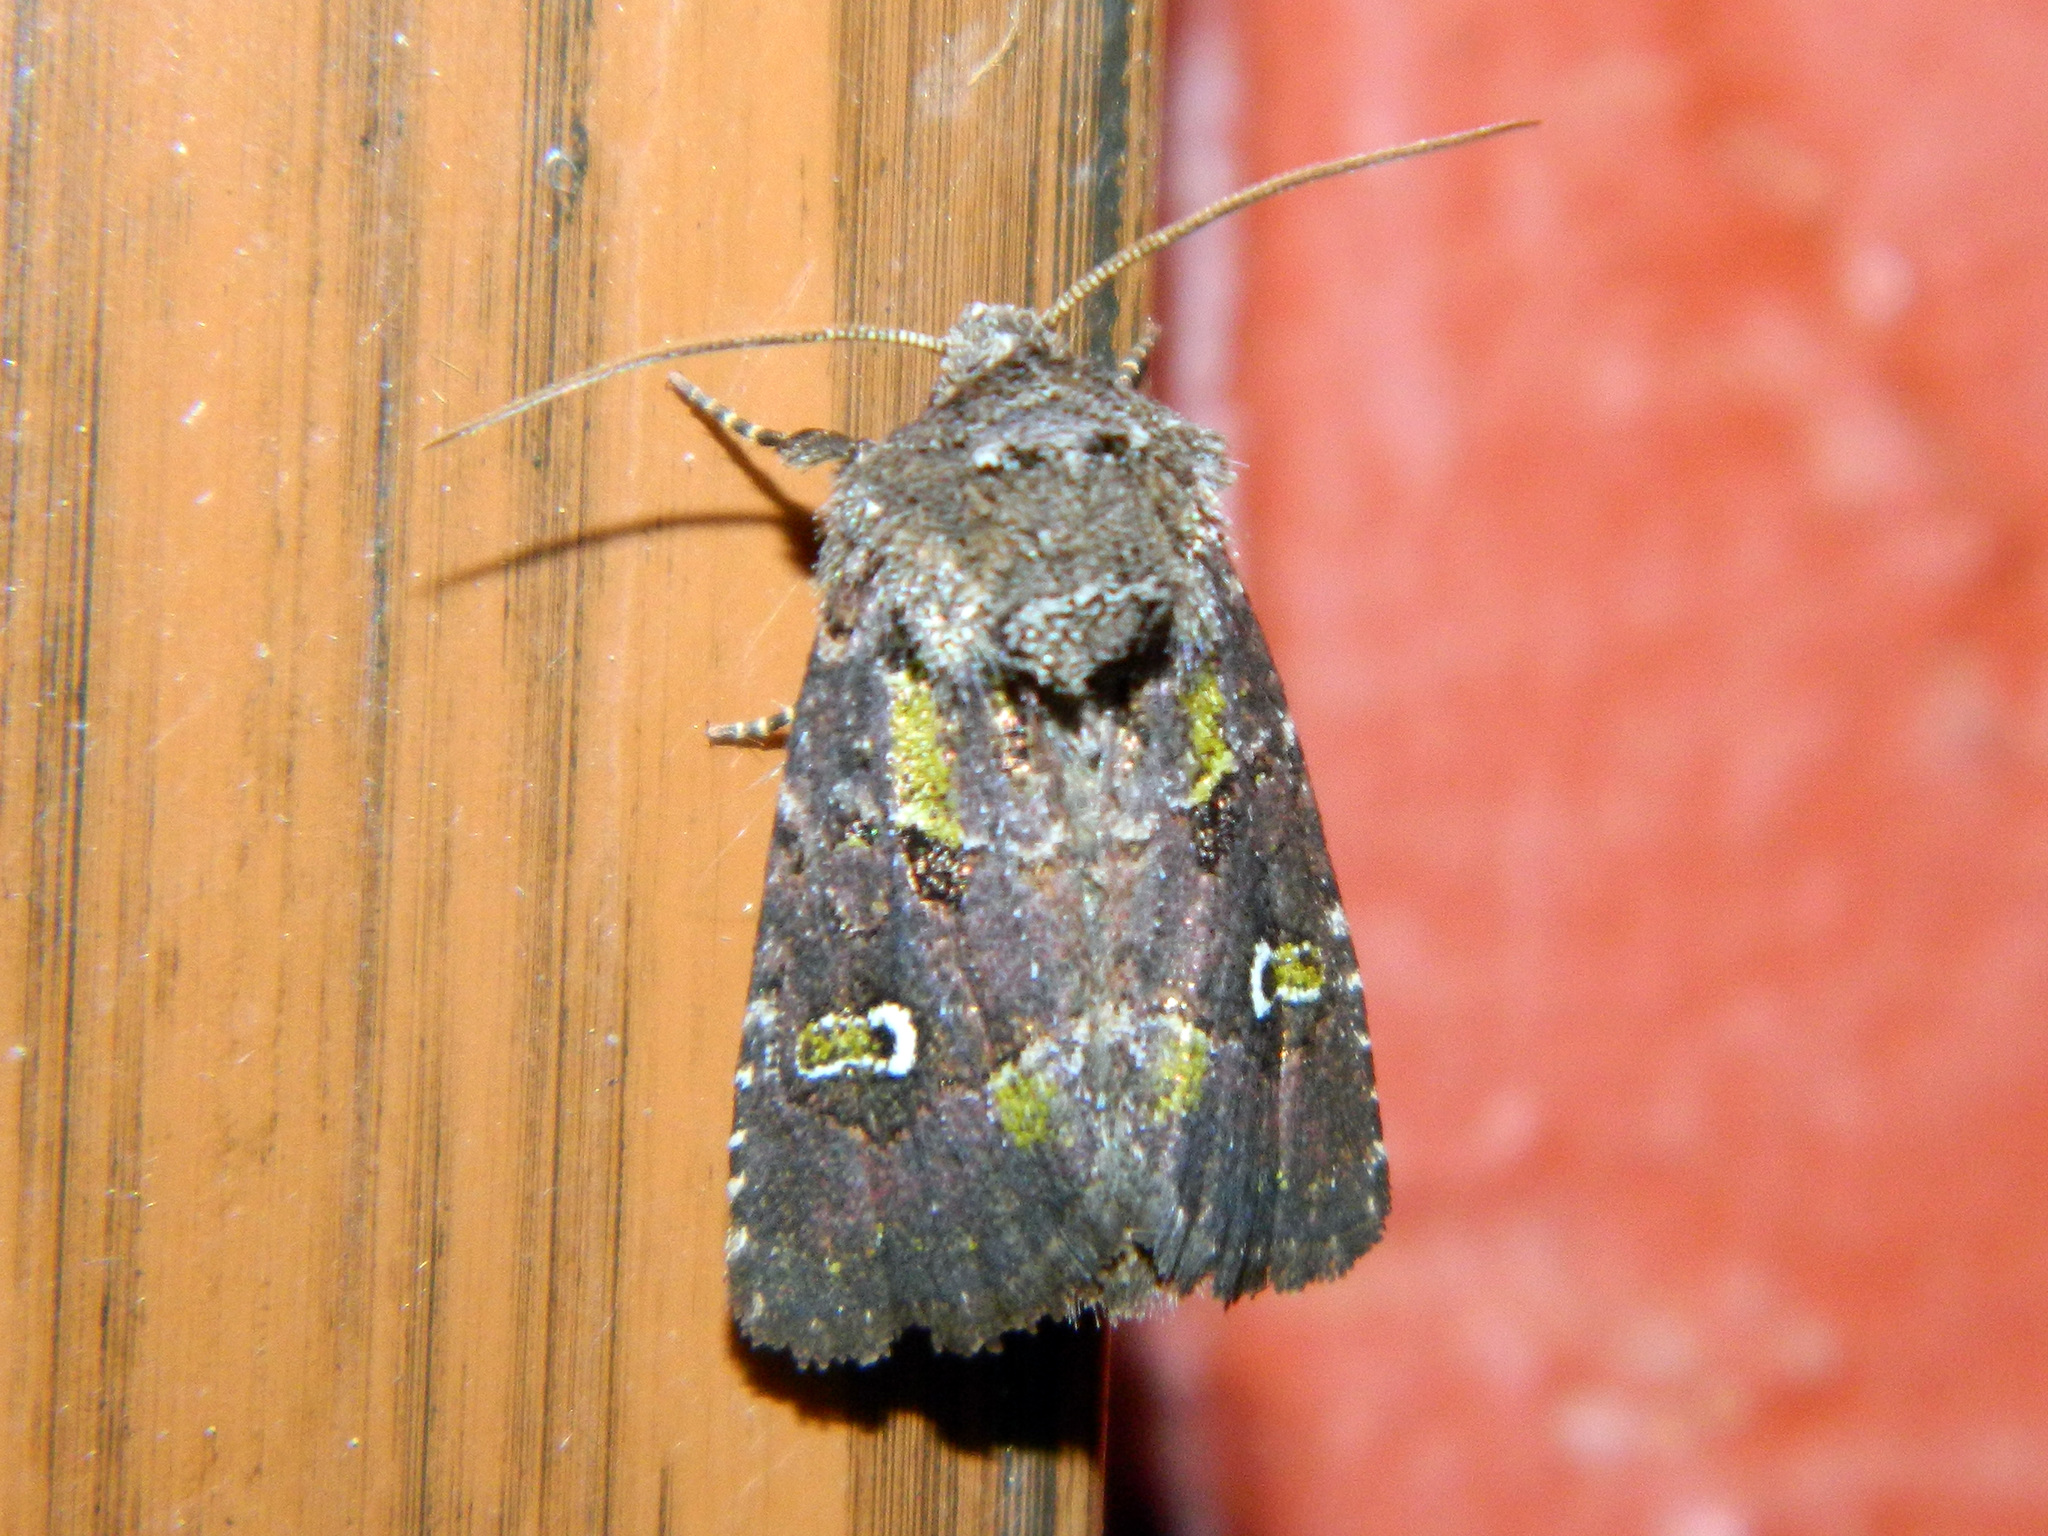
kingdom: Animalia
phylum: Arthropoda
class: Insecta
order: Lepidoptera
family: Noctuidae
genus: Lacinipolia
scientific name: Lacinipolia renigera
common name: Kidney-spotted minor
